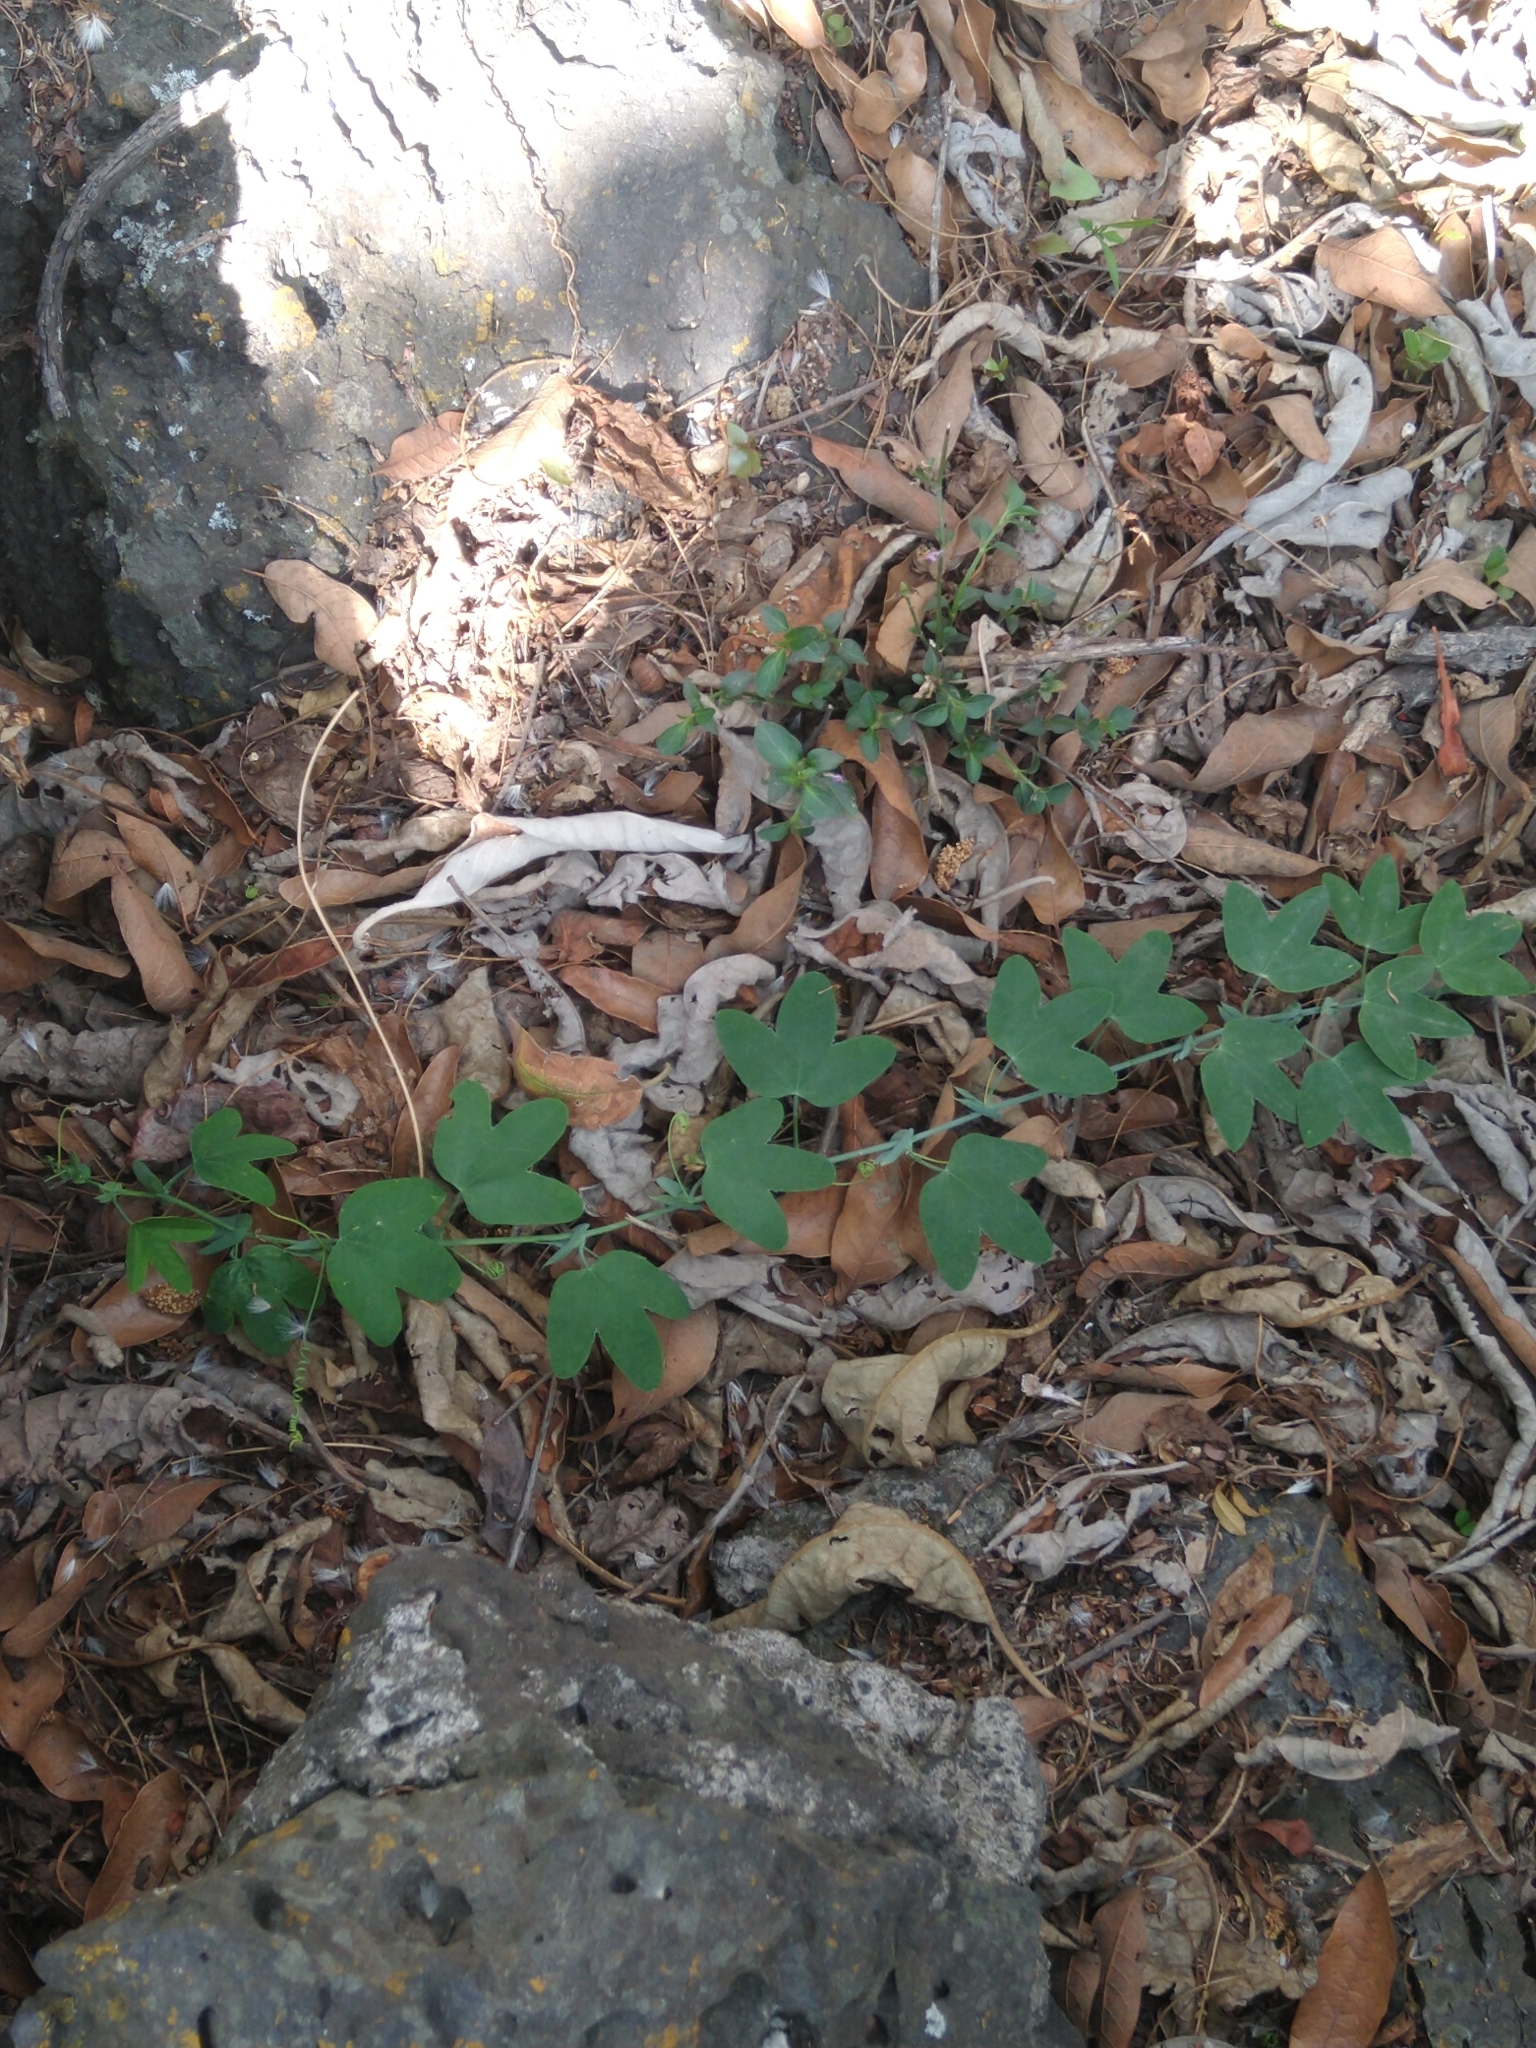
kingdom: Plantae
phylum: Tracheophyta
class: Magnoliopsida
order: Malpighiales
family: Passifloraceae
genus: Passiflora
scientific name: Passiflora subpeltata
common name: White passionflower
